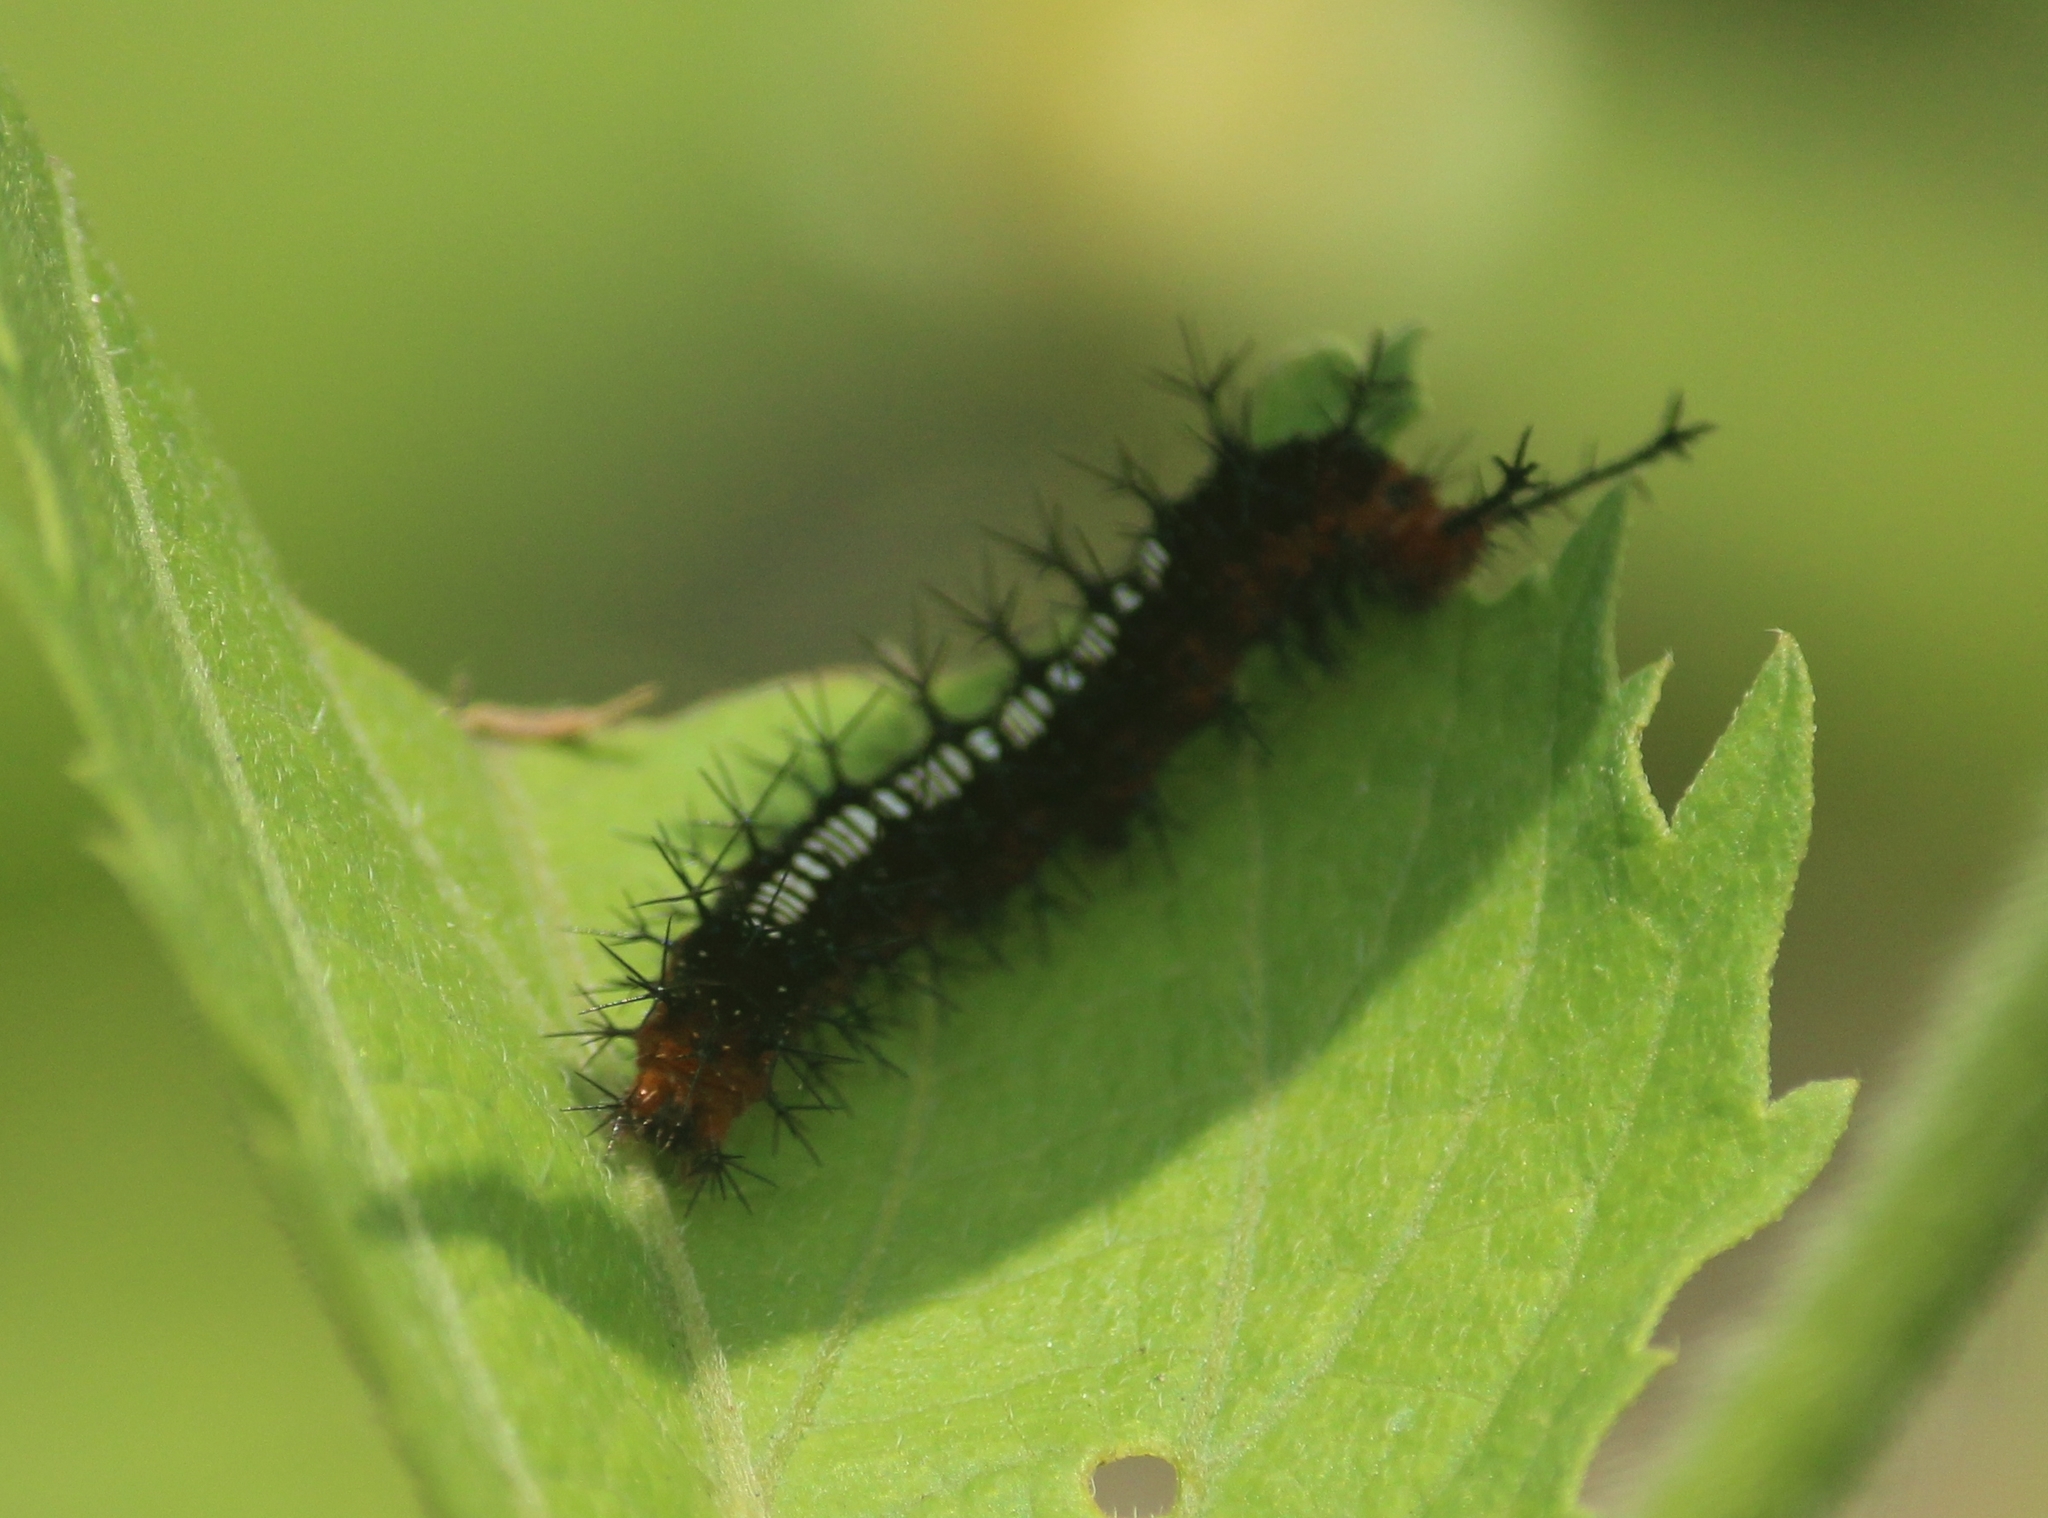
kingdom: Animalia
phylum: Arthropoda
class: Insecta
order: Lepidoptera
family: Nymphalidae
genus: Ariadne
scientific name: Ariadne ariadne
